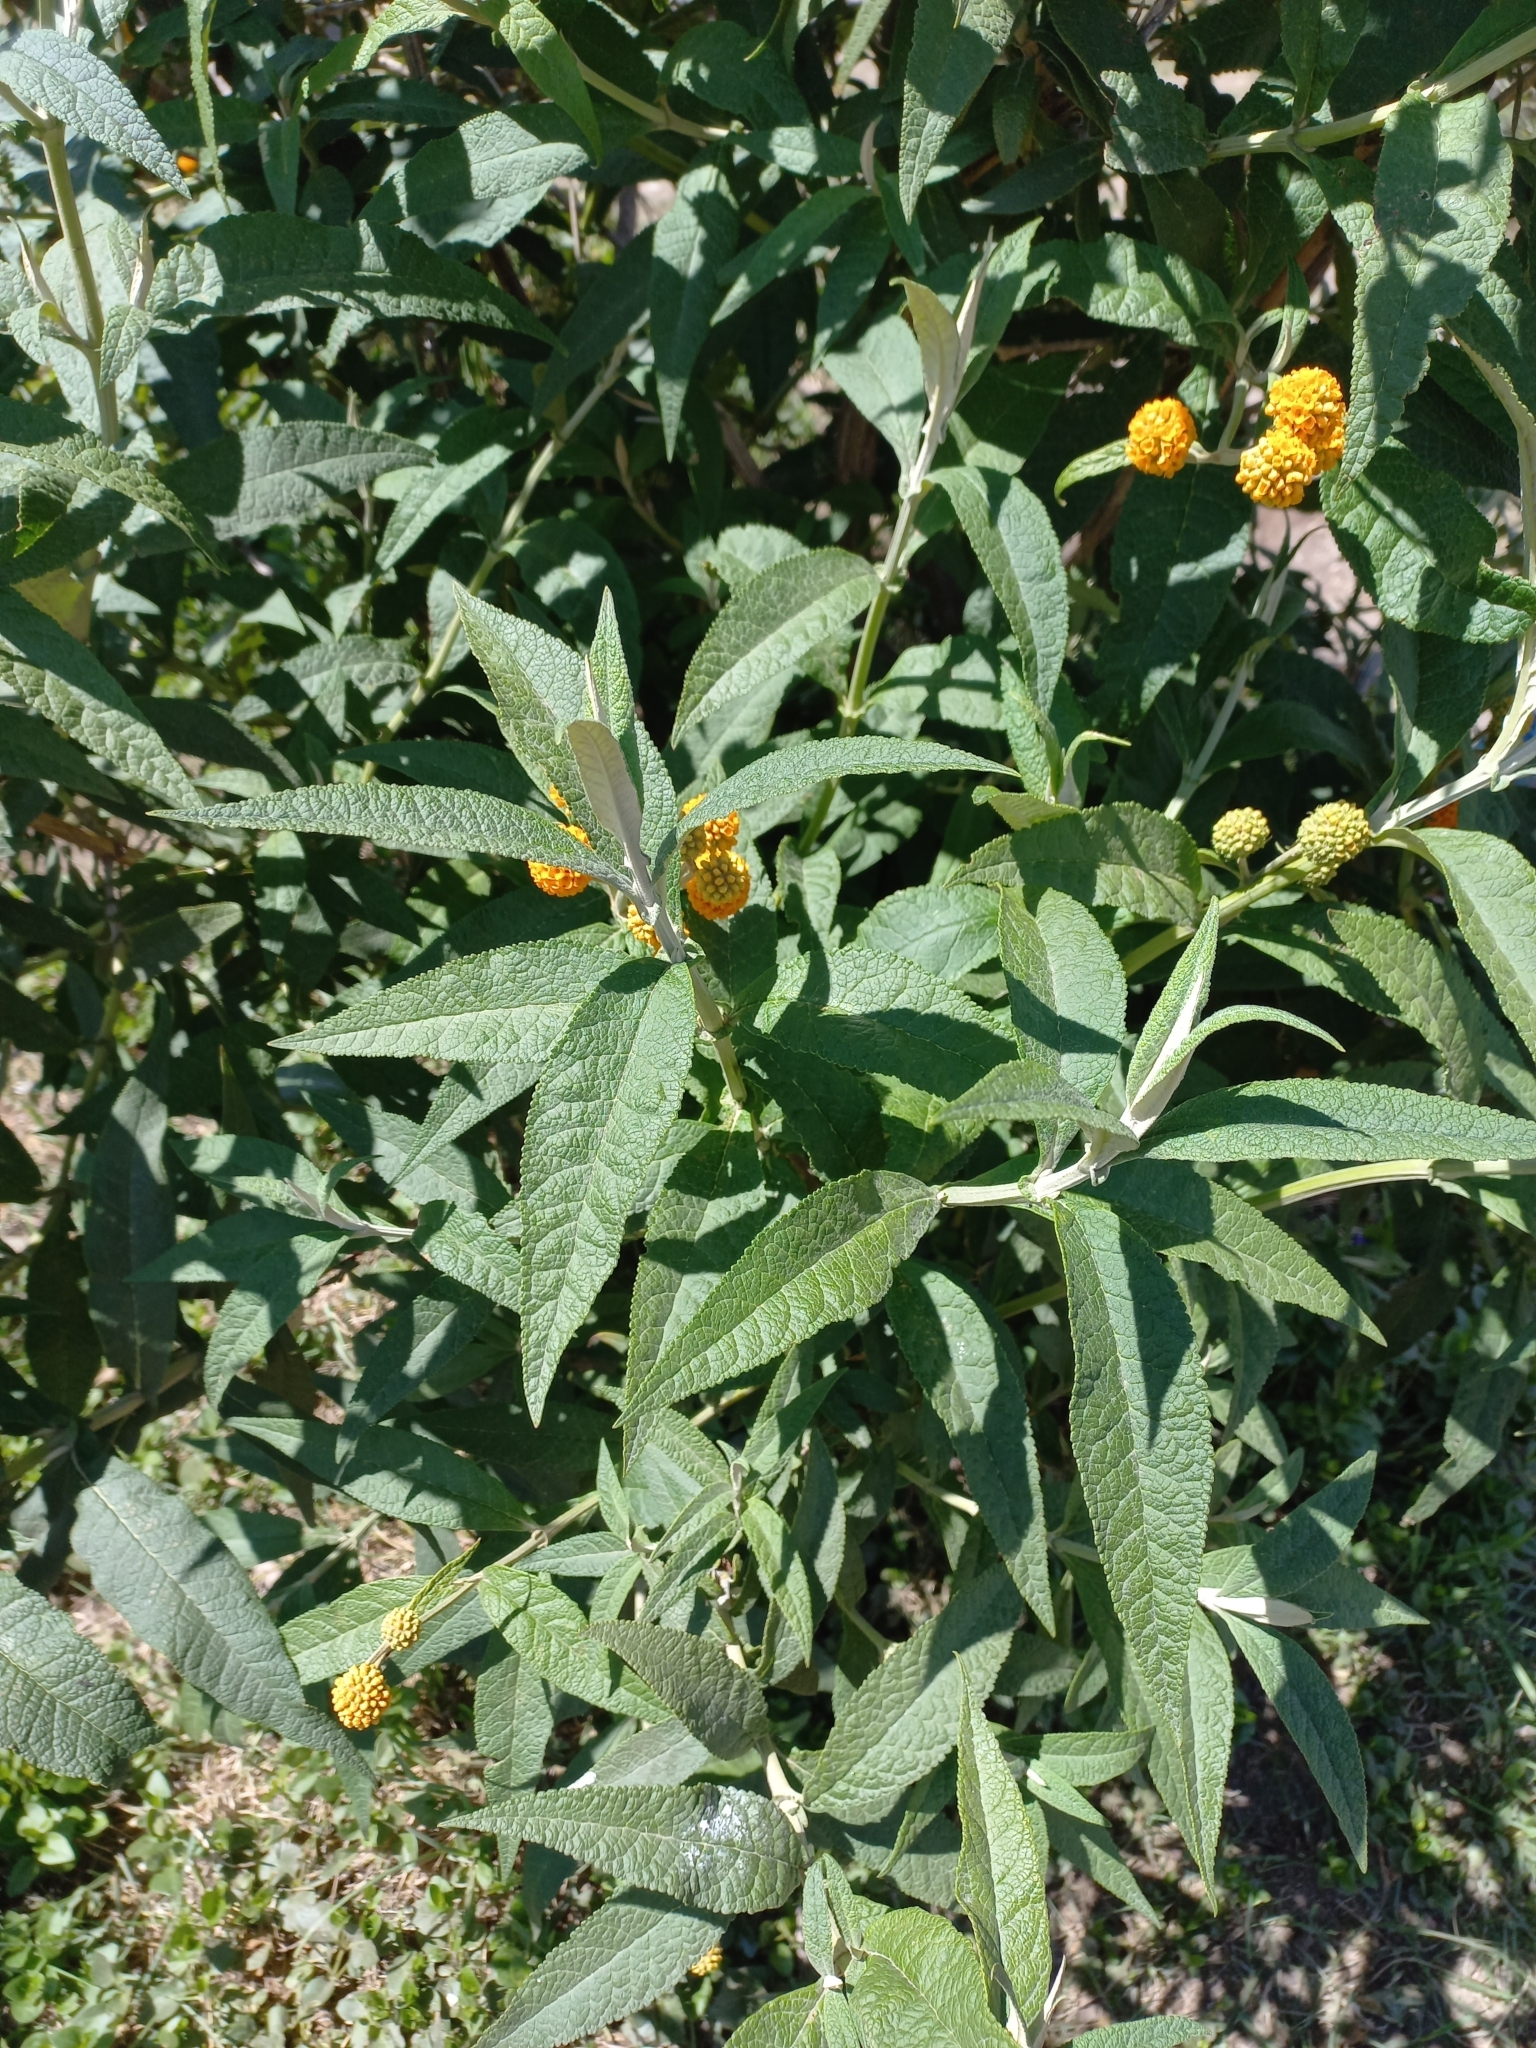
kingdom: Plantae
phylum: Tracheophyta
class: Magnoliopsida
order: Lamiales
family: Scrophulariaceae
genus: Buddleja
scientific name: Buddleja globosa
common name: Orange-ball-tree
